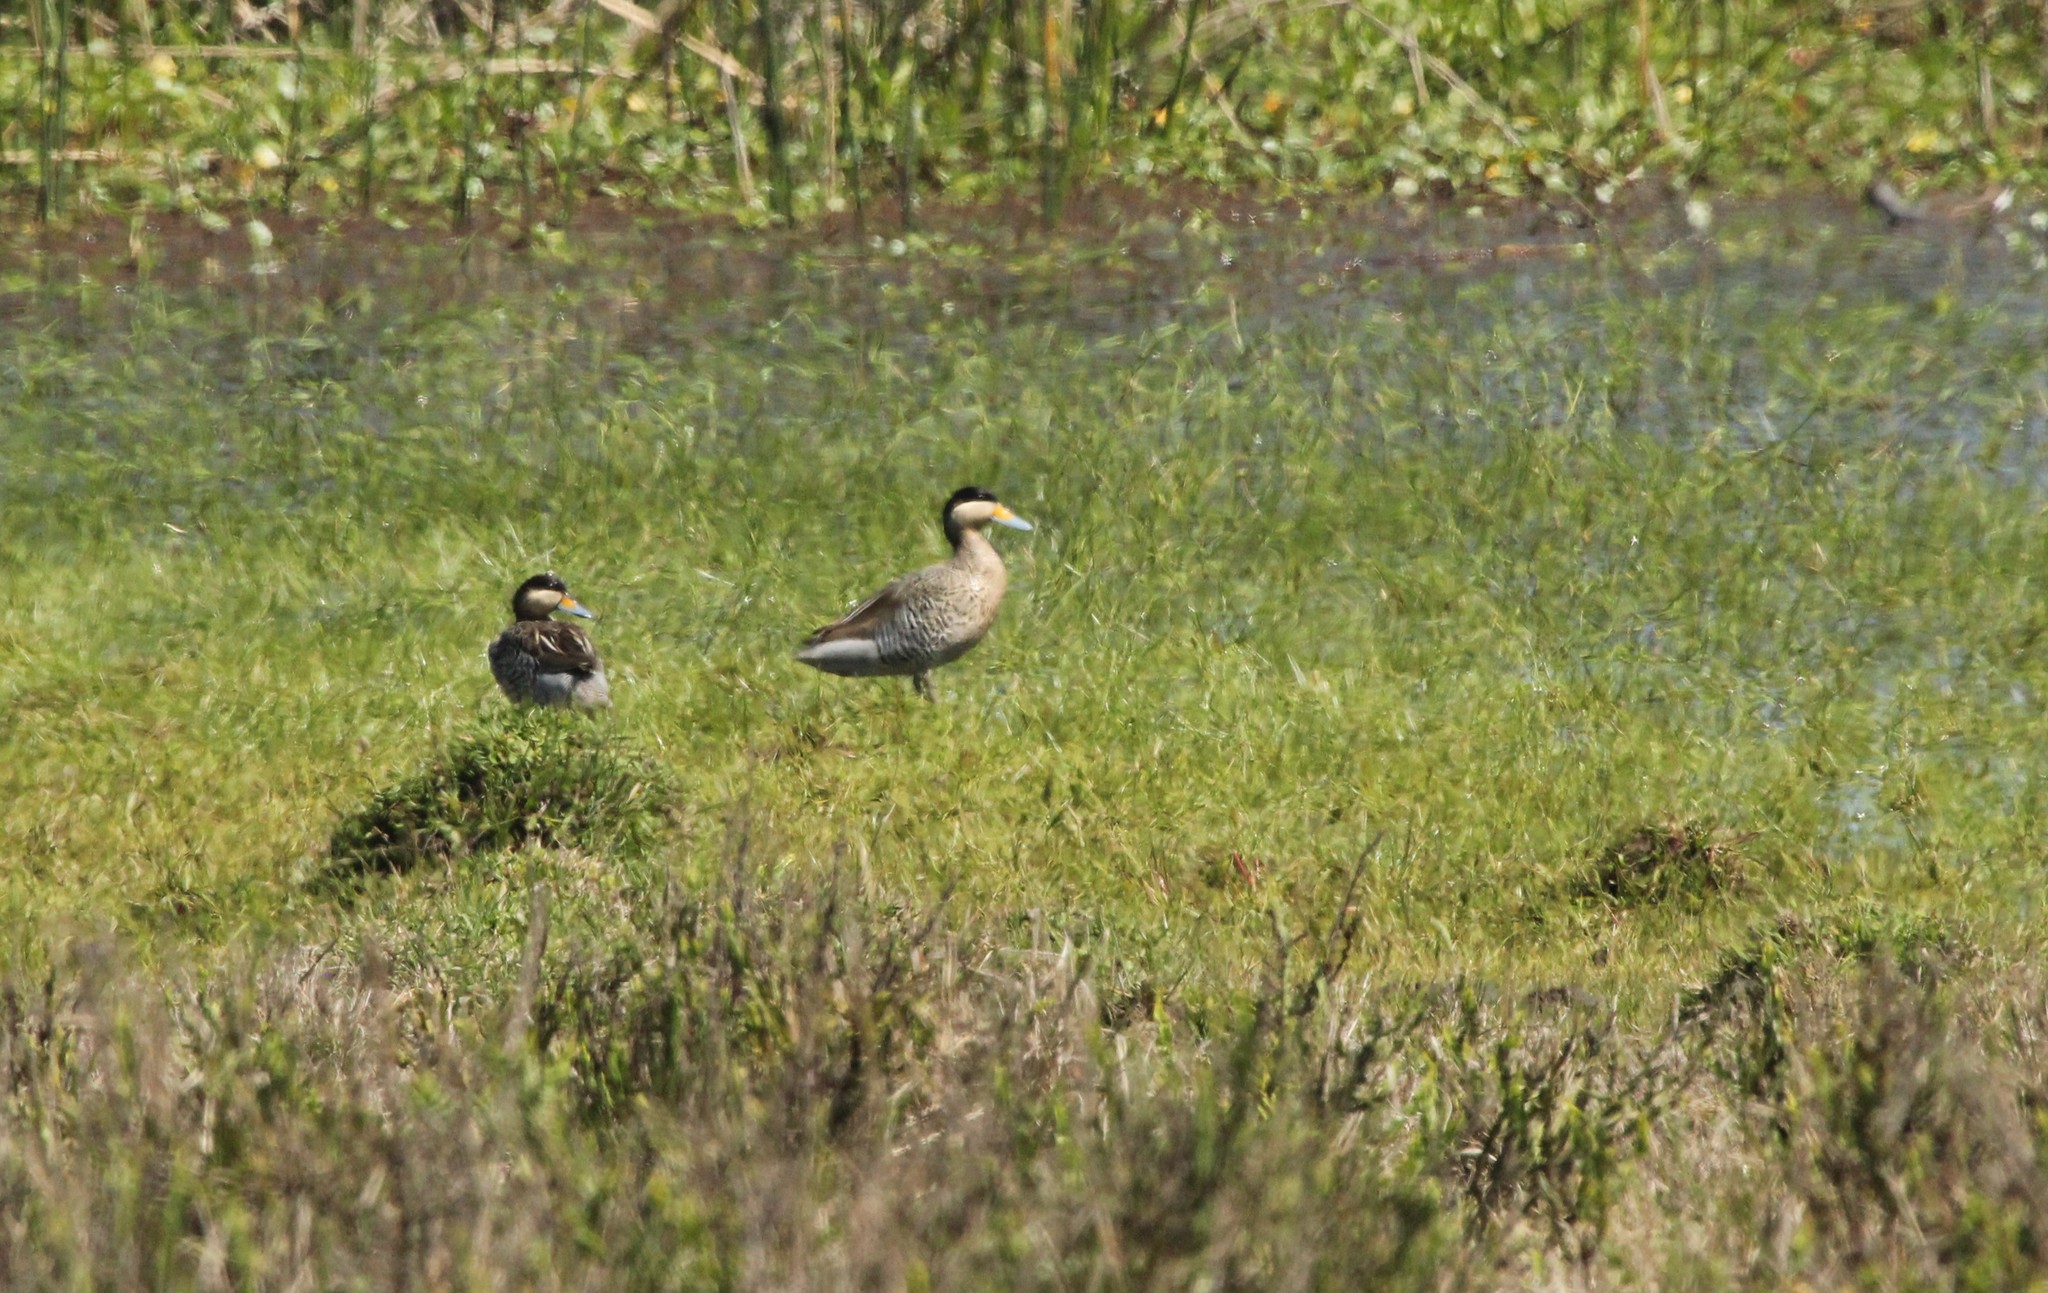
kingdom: Animalia
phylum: Chordata
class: Aves
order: Anseriformes
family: Anatidae
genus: Spatula
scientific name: Spatula versicolor
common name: Silver teal
